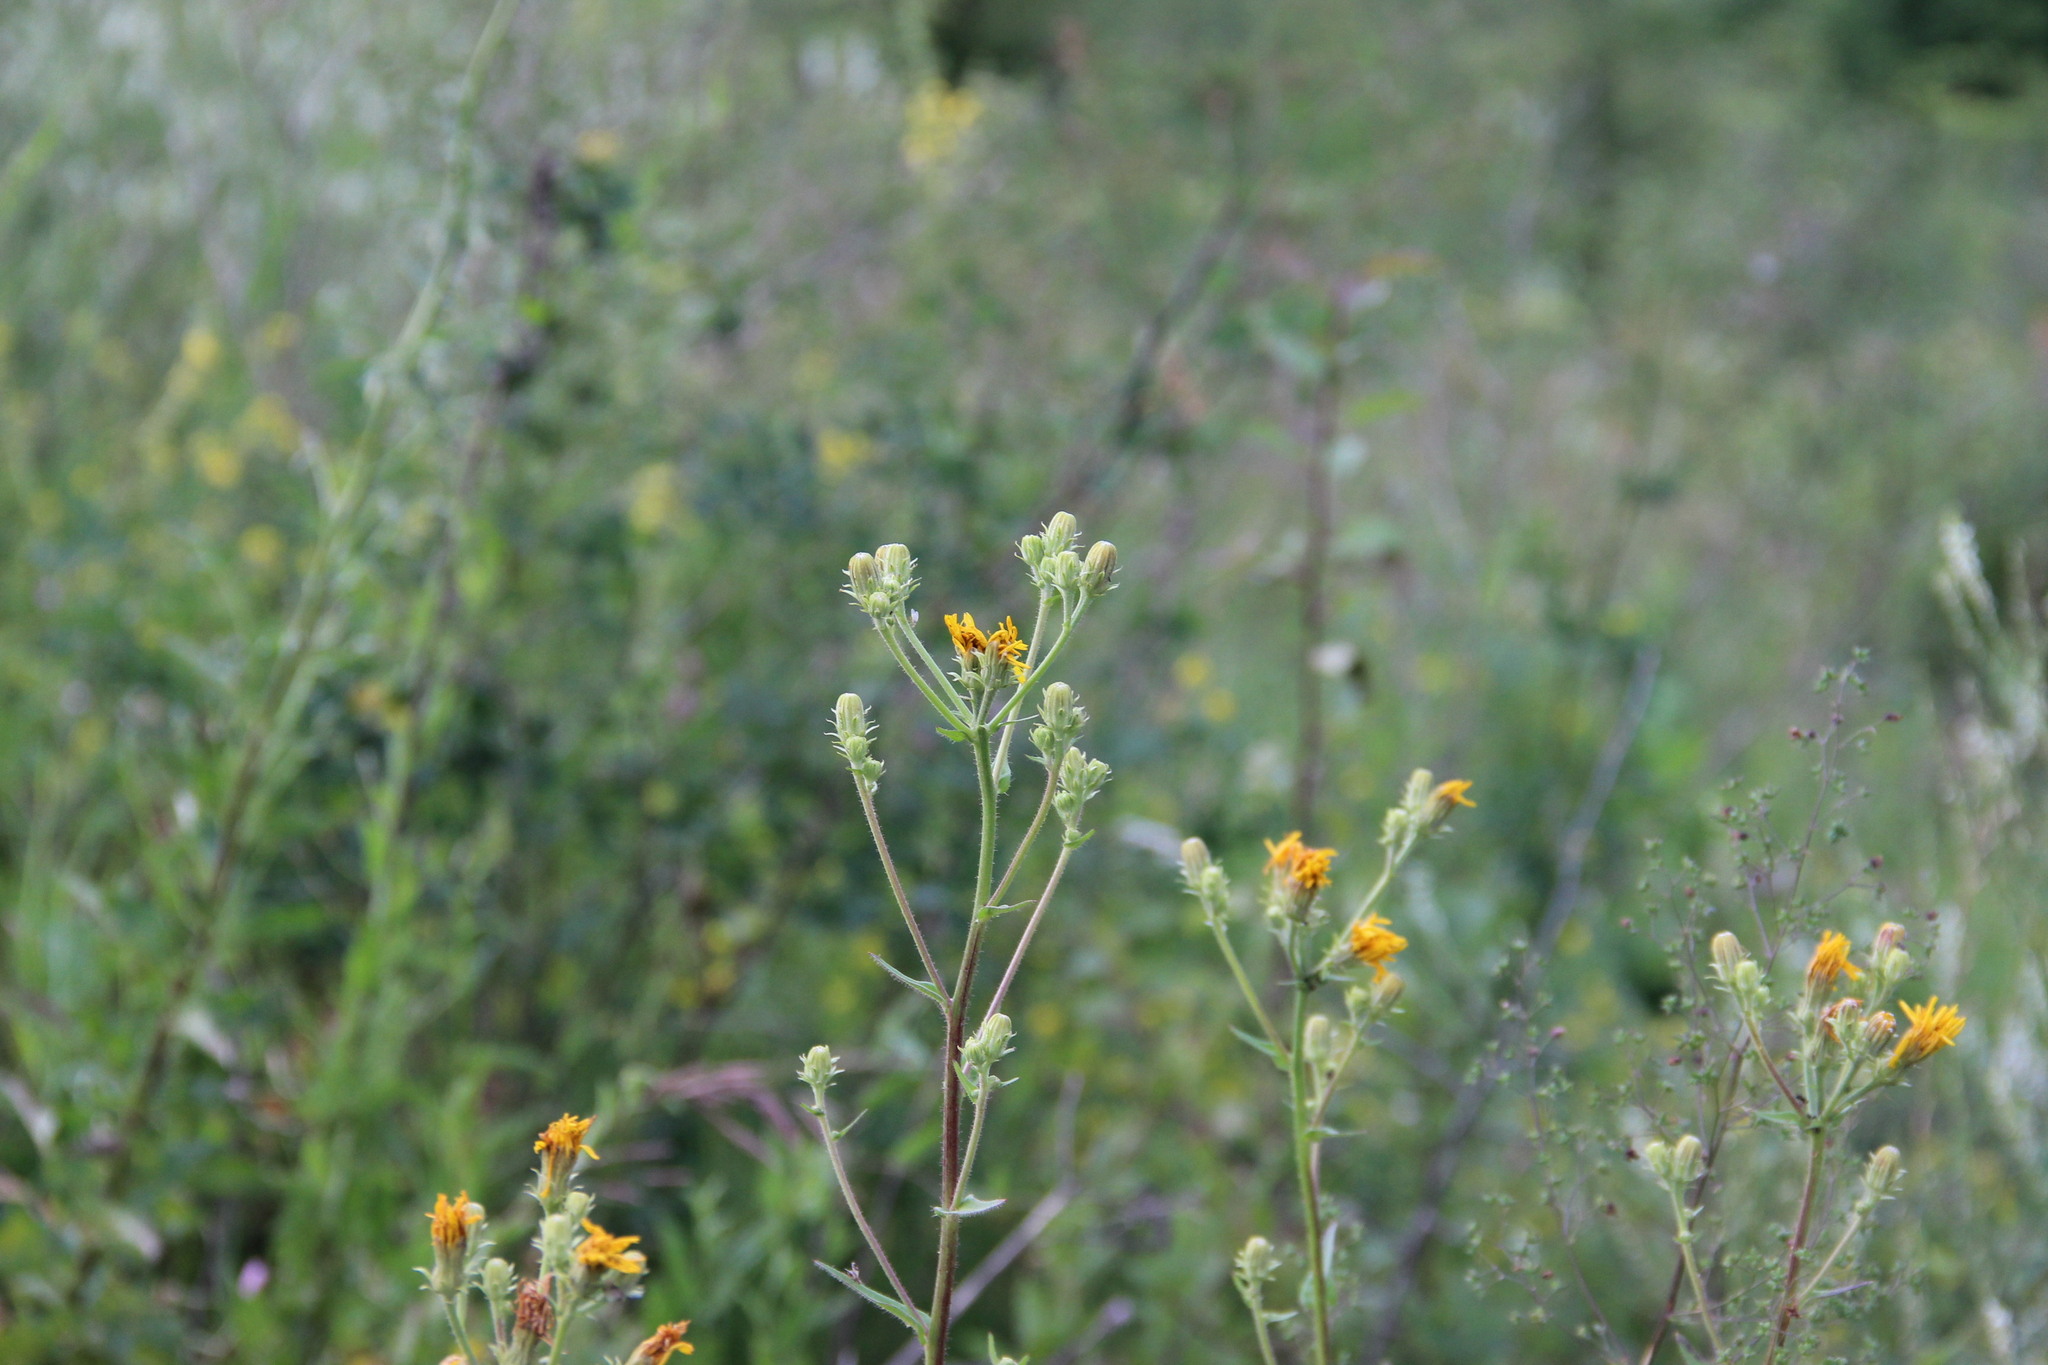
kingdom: Plantae
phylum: Tracheophyta
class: Magnoliopsida
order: Asterales
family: Asteraceae
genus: Picris
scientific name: Picris hieracioides
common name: Hawkweed oxtongue
